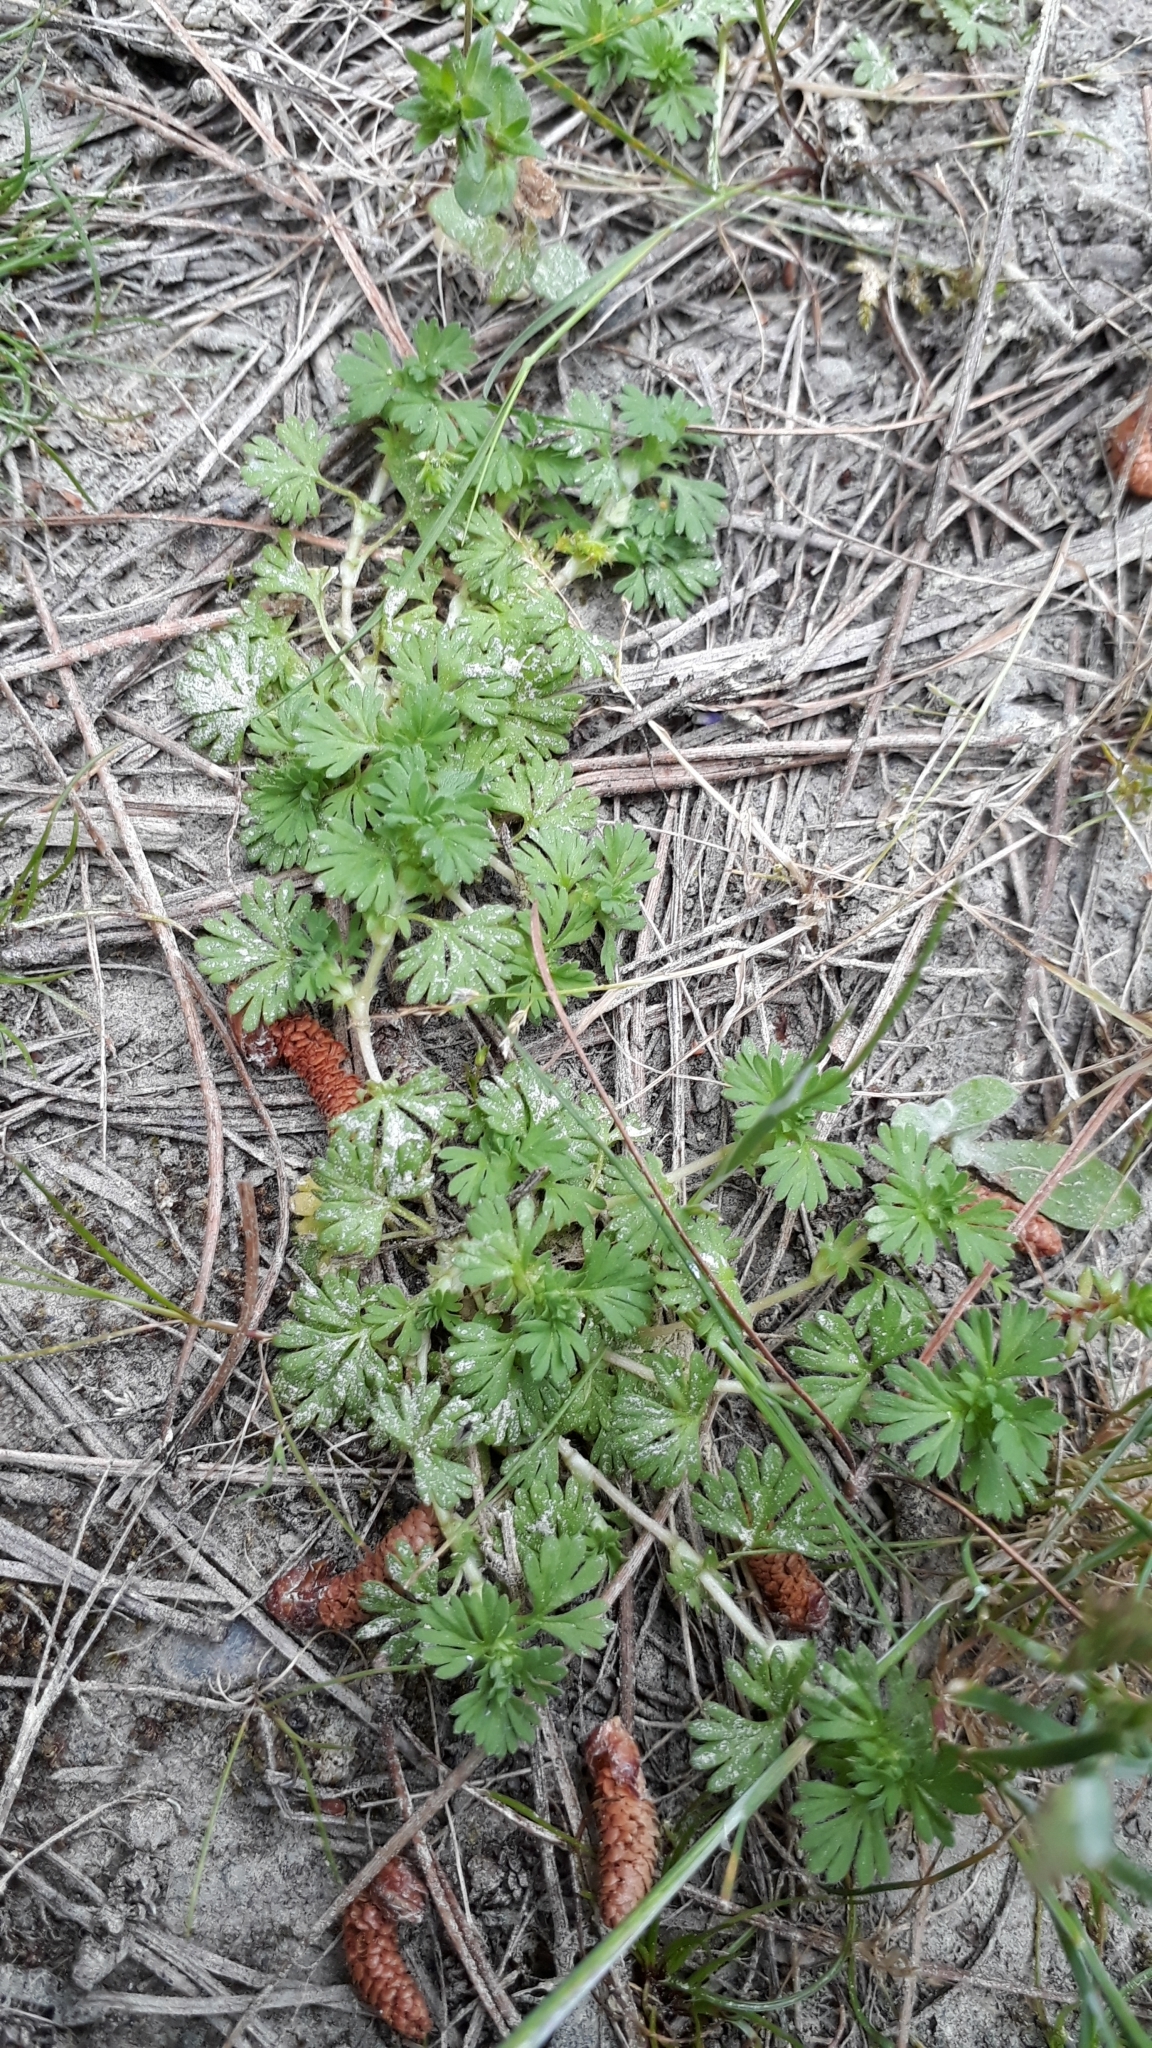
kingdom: Plantae
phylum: Tracheophyta
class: Magnoliopsida
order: Rosales
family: Rosaceae
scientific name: Rosaceae
